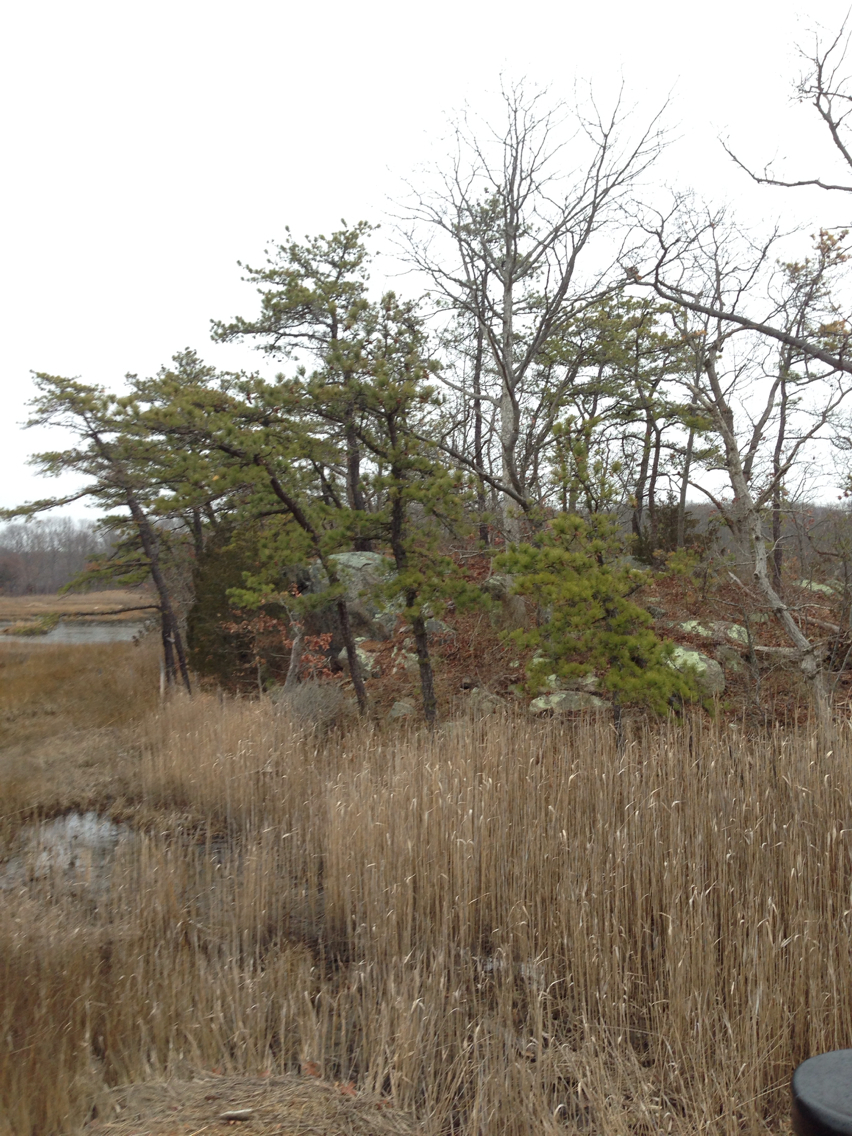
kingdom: Plantae
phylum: Tracheophyta
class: Pinopsida
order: Pinales
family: Pinaceae
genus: Pinus
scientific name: Pinus rigida
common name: Pitch pine
